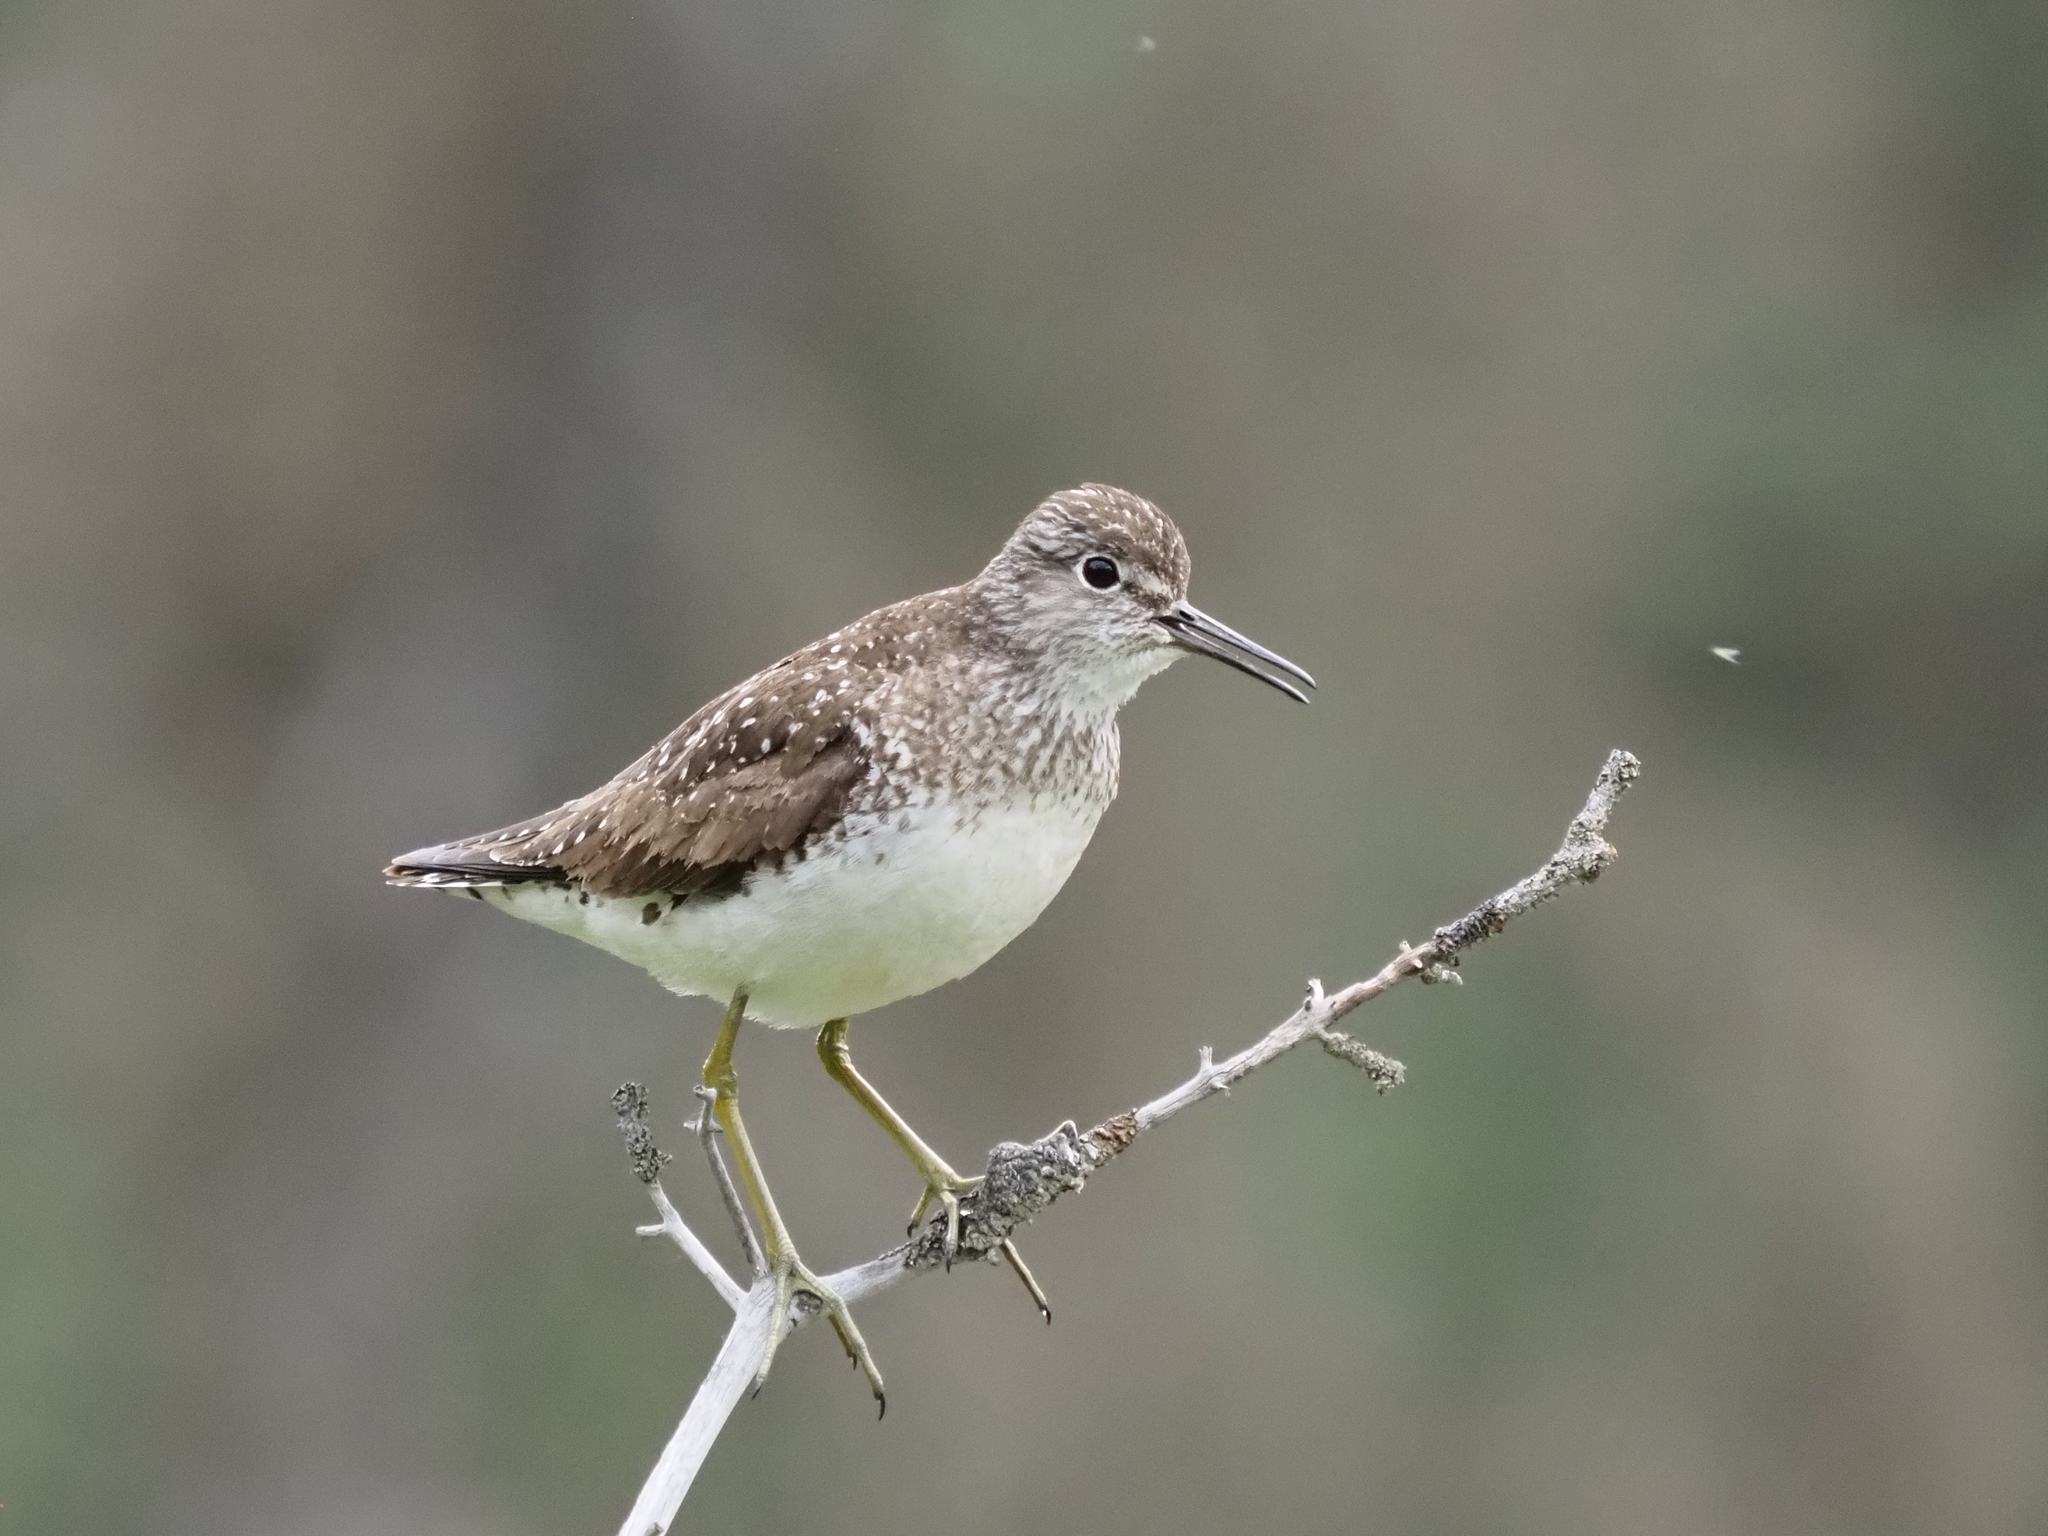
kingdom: Animalia
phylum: Chordata
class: Aves
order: Charadriiformes
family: Scolopacidae
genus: Tringa
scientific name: Tringa solitaria
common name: Solitary sandpiper
